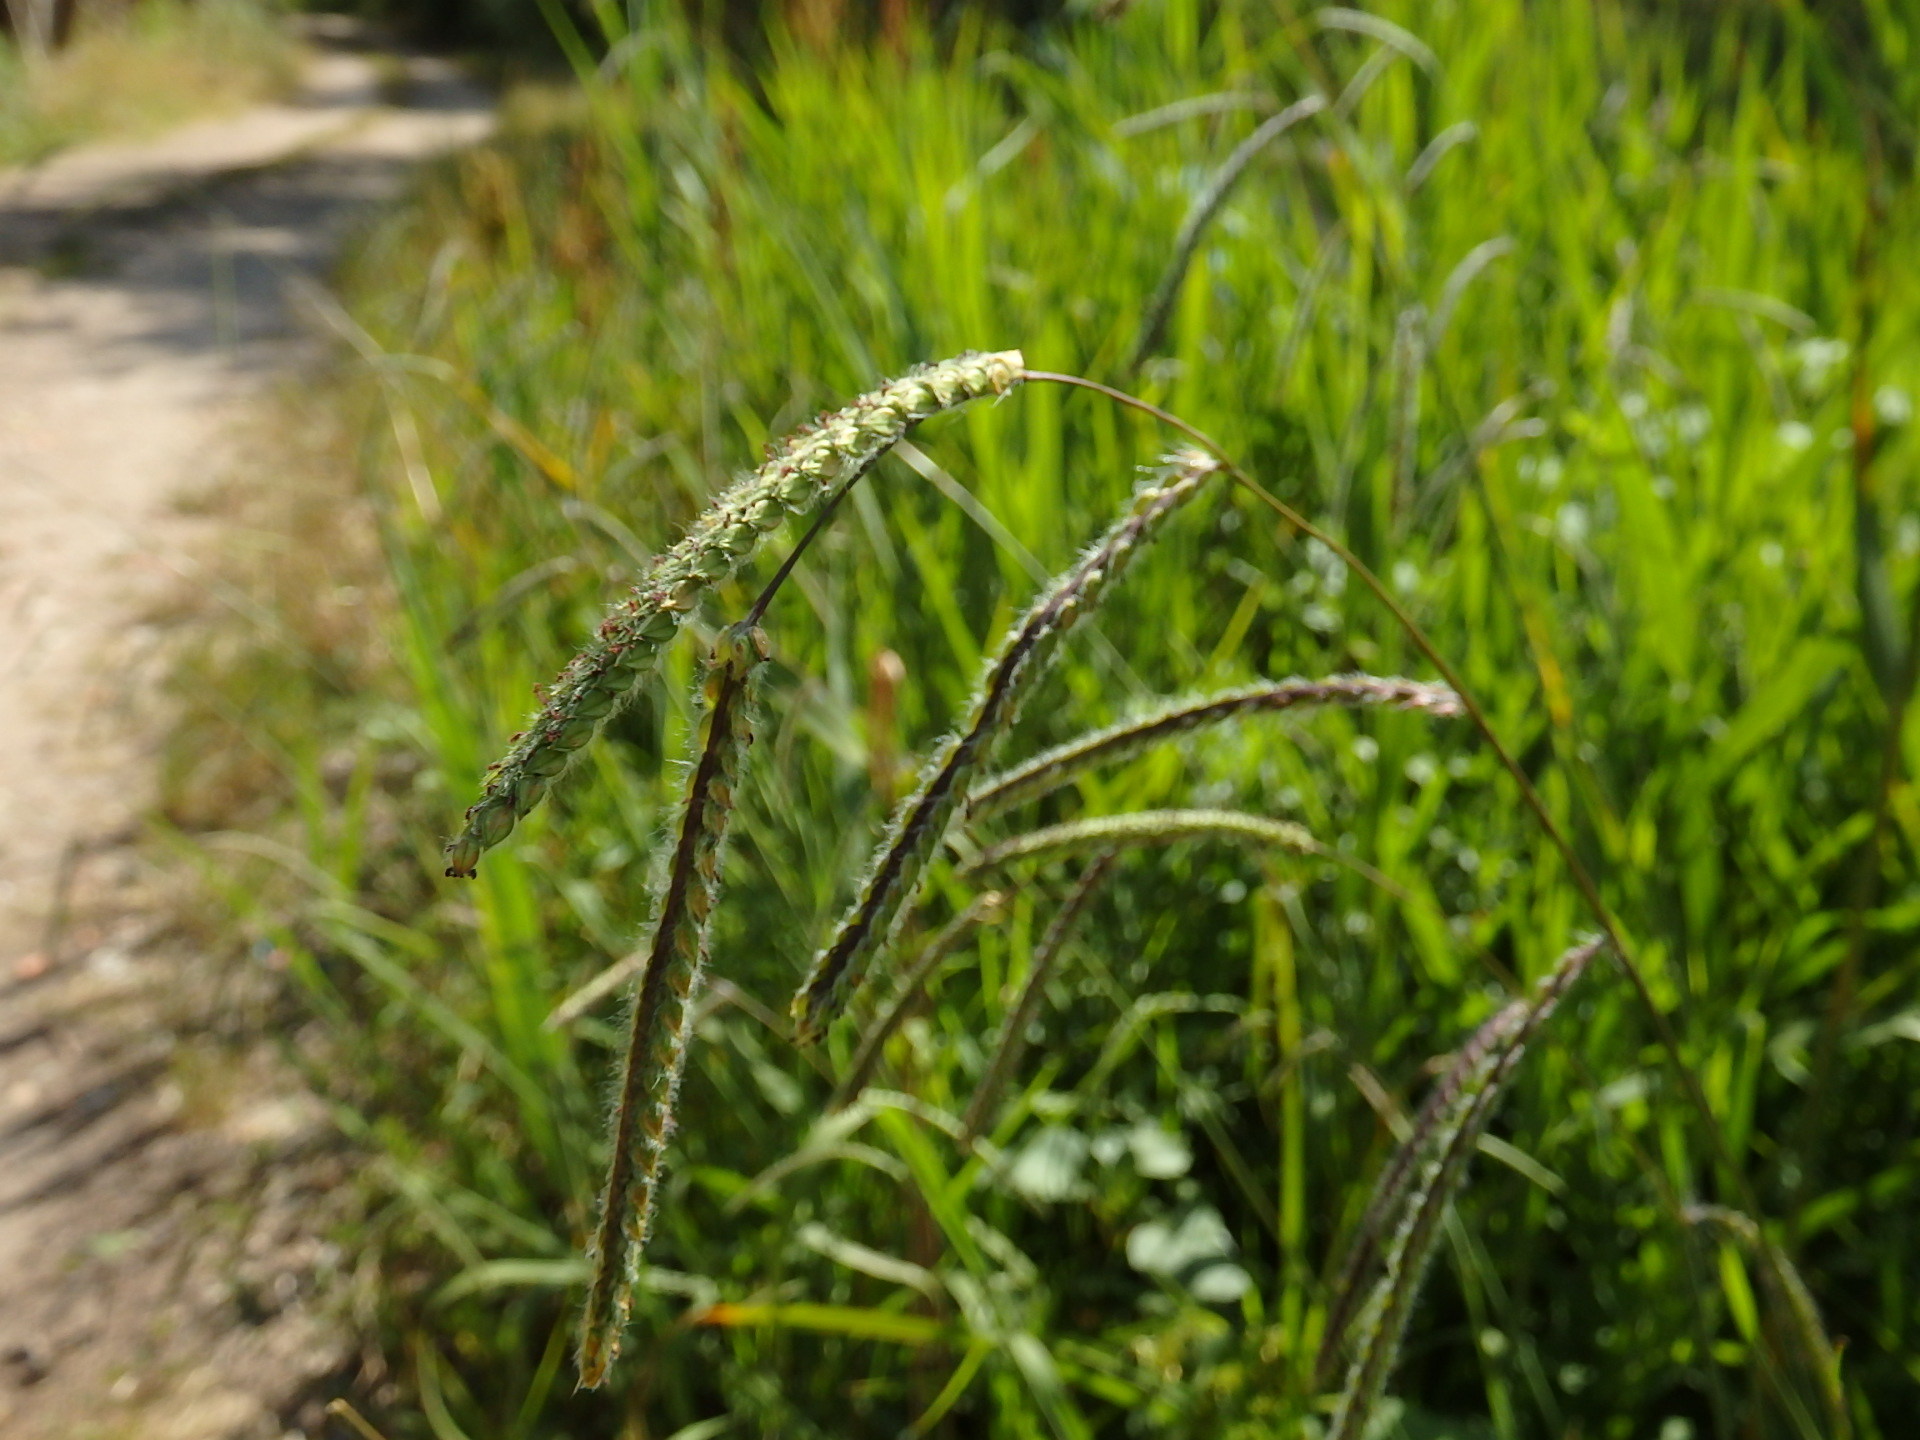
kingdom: Plantae
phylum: Tracheophyta
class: Liliopsida
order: Poales
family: Poaceae
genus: Paspalum
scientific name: Paspalum dilatatum
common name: Dallisgrass
